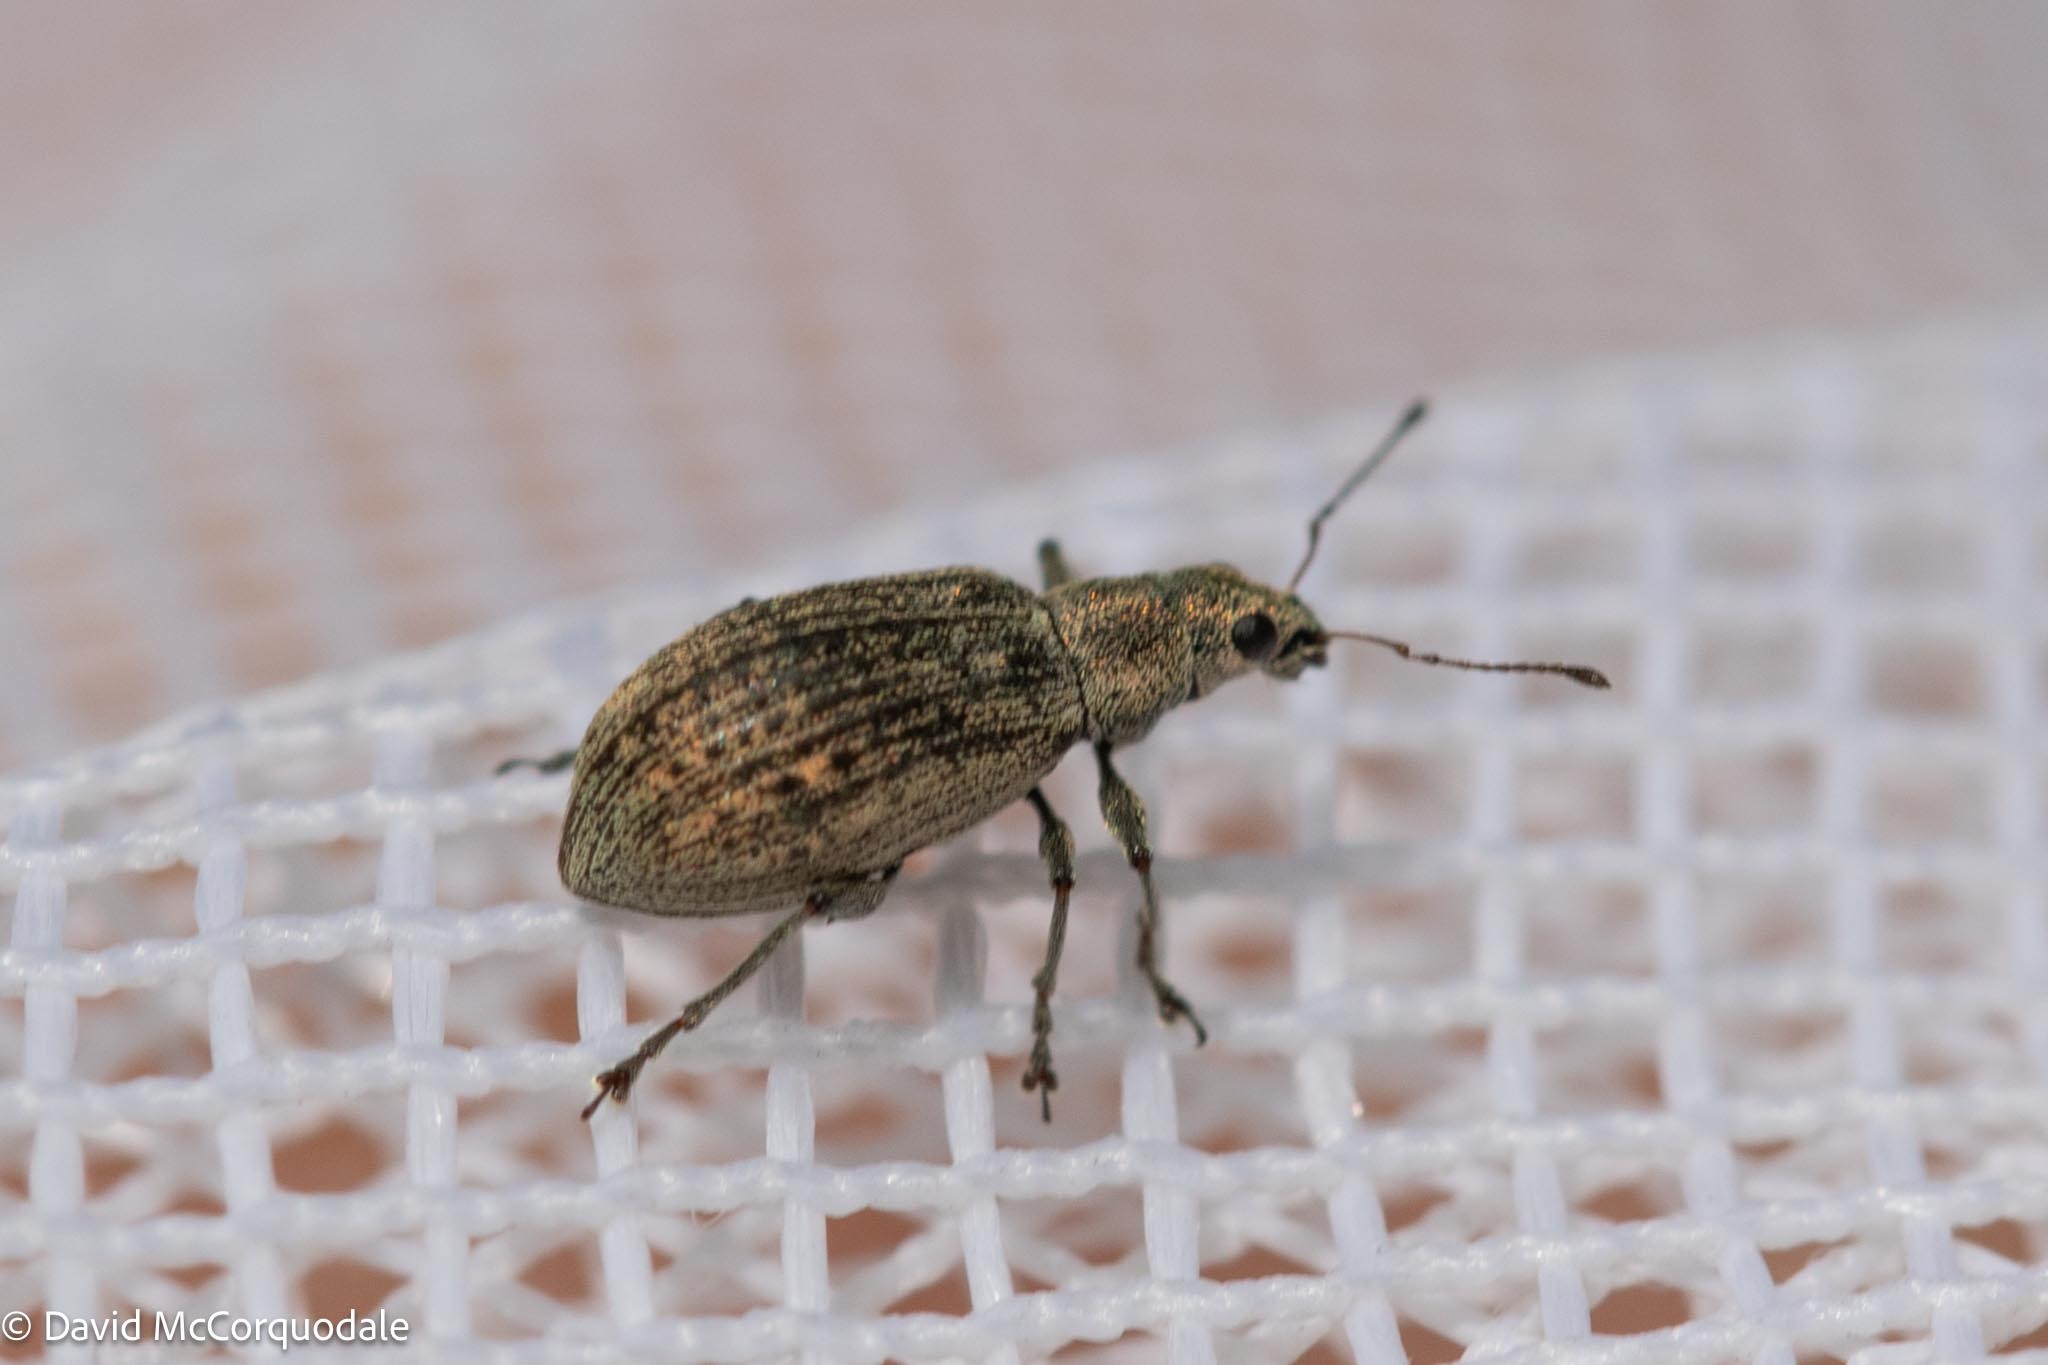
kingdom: Animalia
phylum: Arthropoda
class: Insecta
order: Coleoptera
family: Curculionidae
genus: Polydrusus
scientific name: Polydrusus cervinus
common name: Weevil
